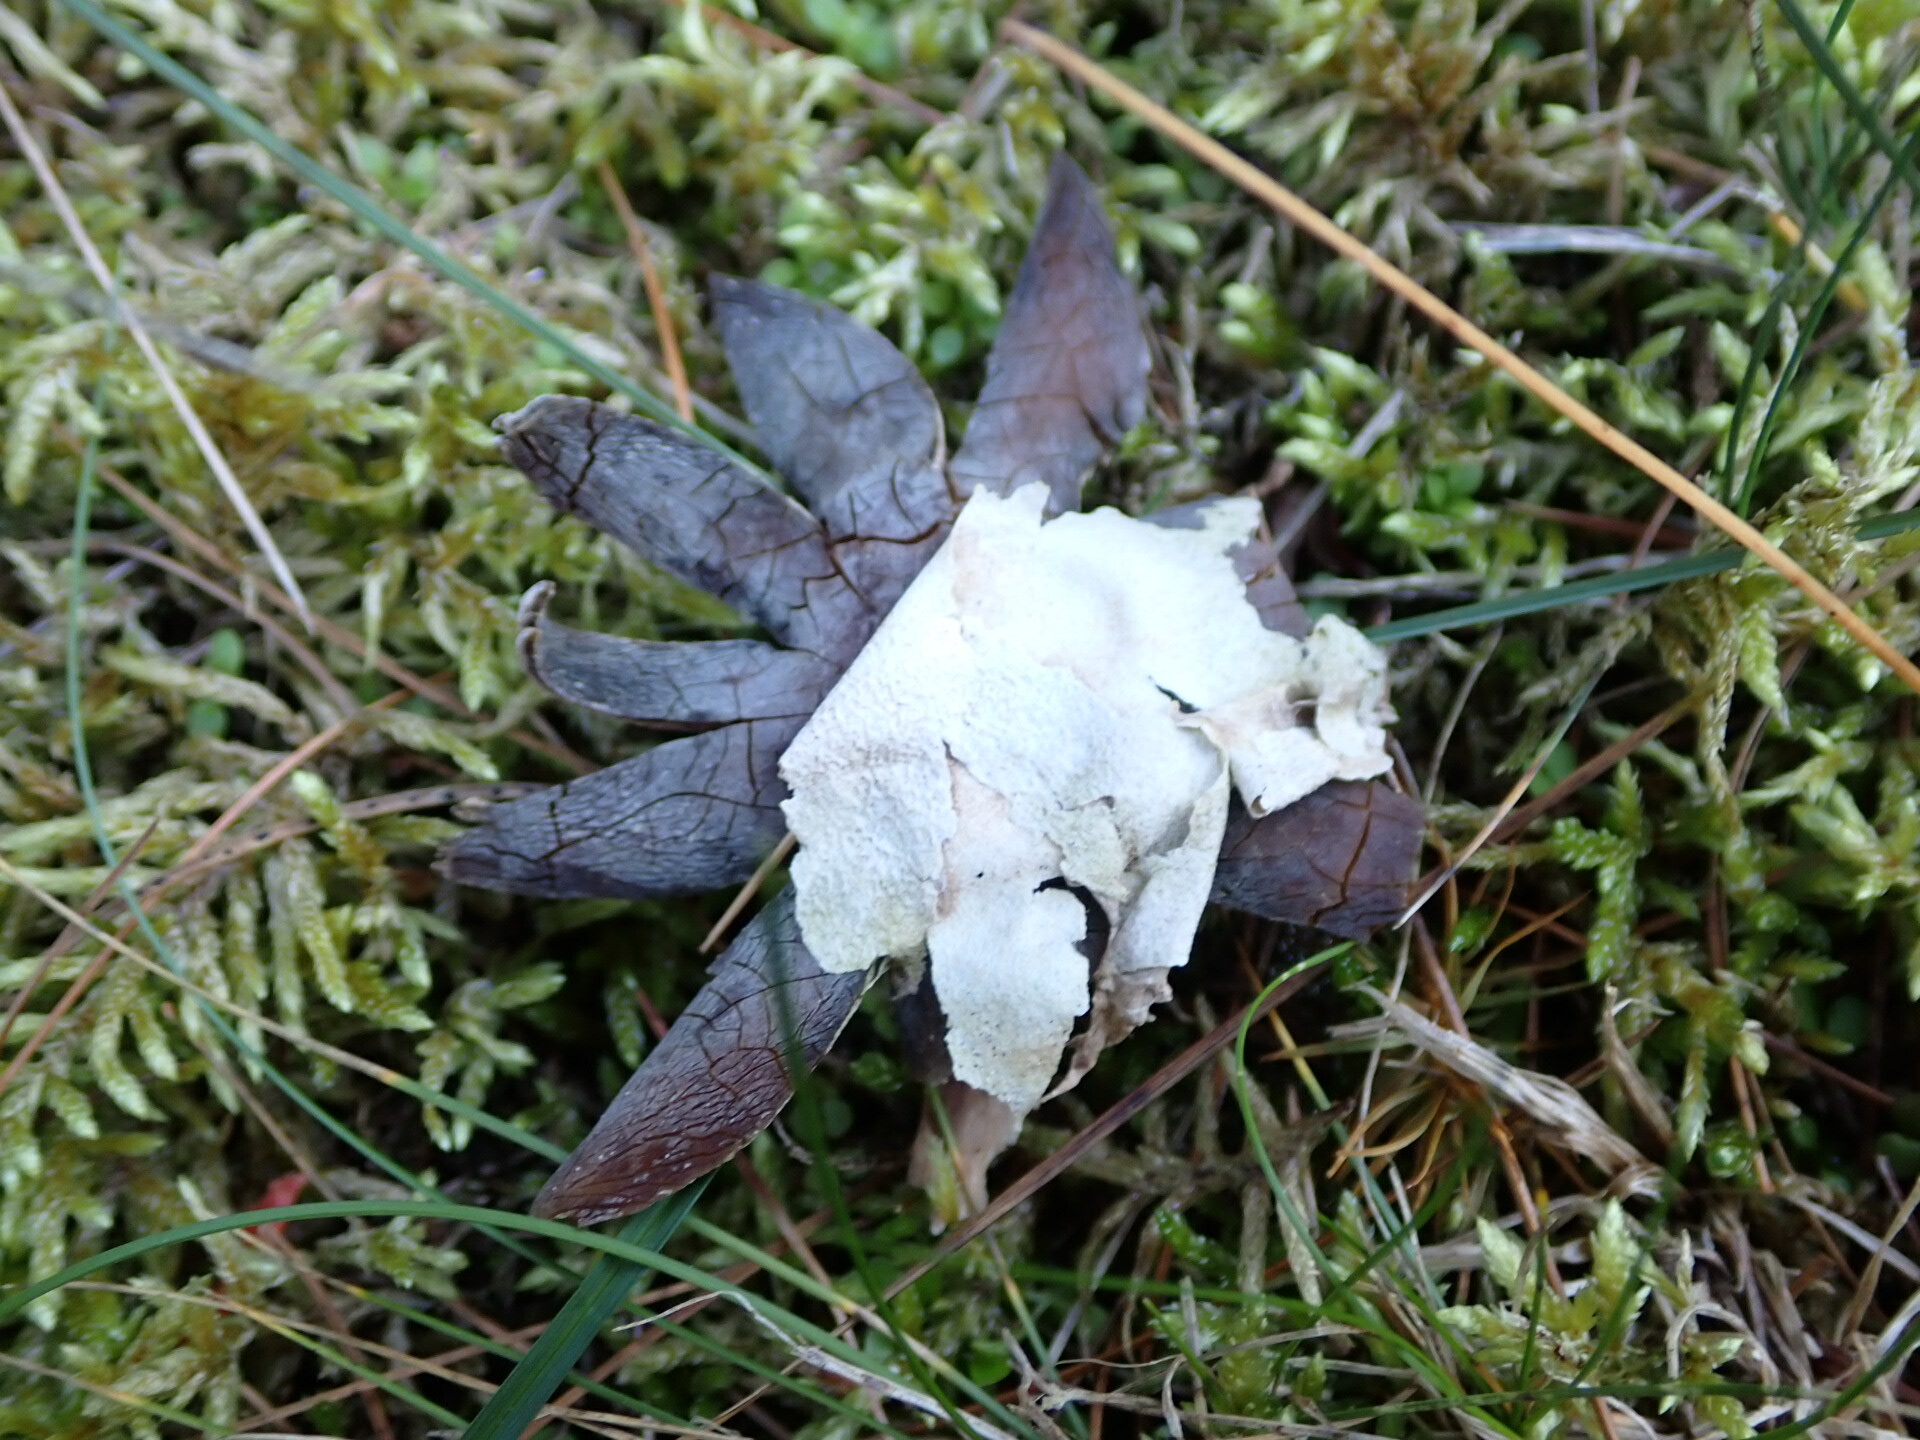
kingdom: Fungi
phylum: Basidiomycota
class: Agaricomycetes
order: Boletales
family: Diplocystidiaceae
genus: Astraeus
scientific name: Astraeus hygrometricus
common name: Barometer earthstar
